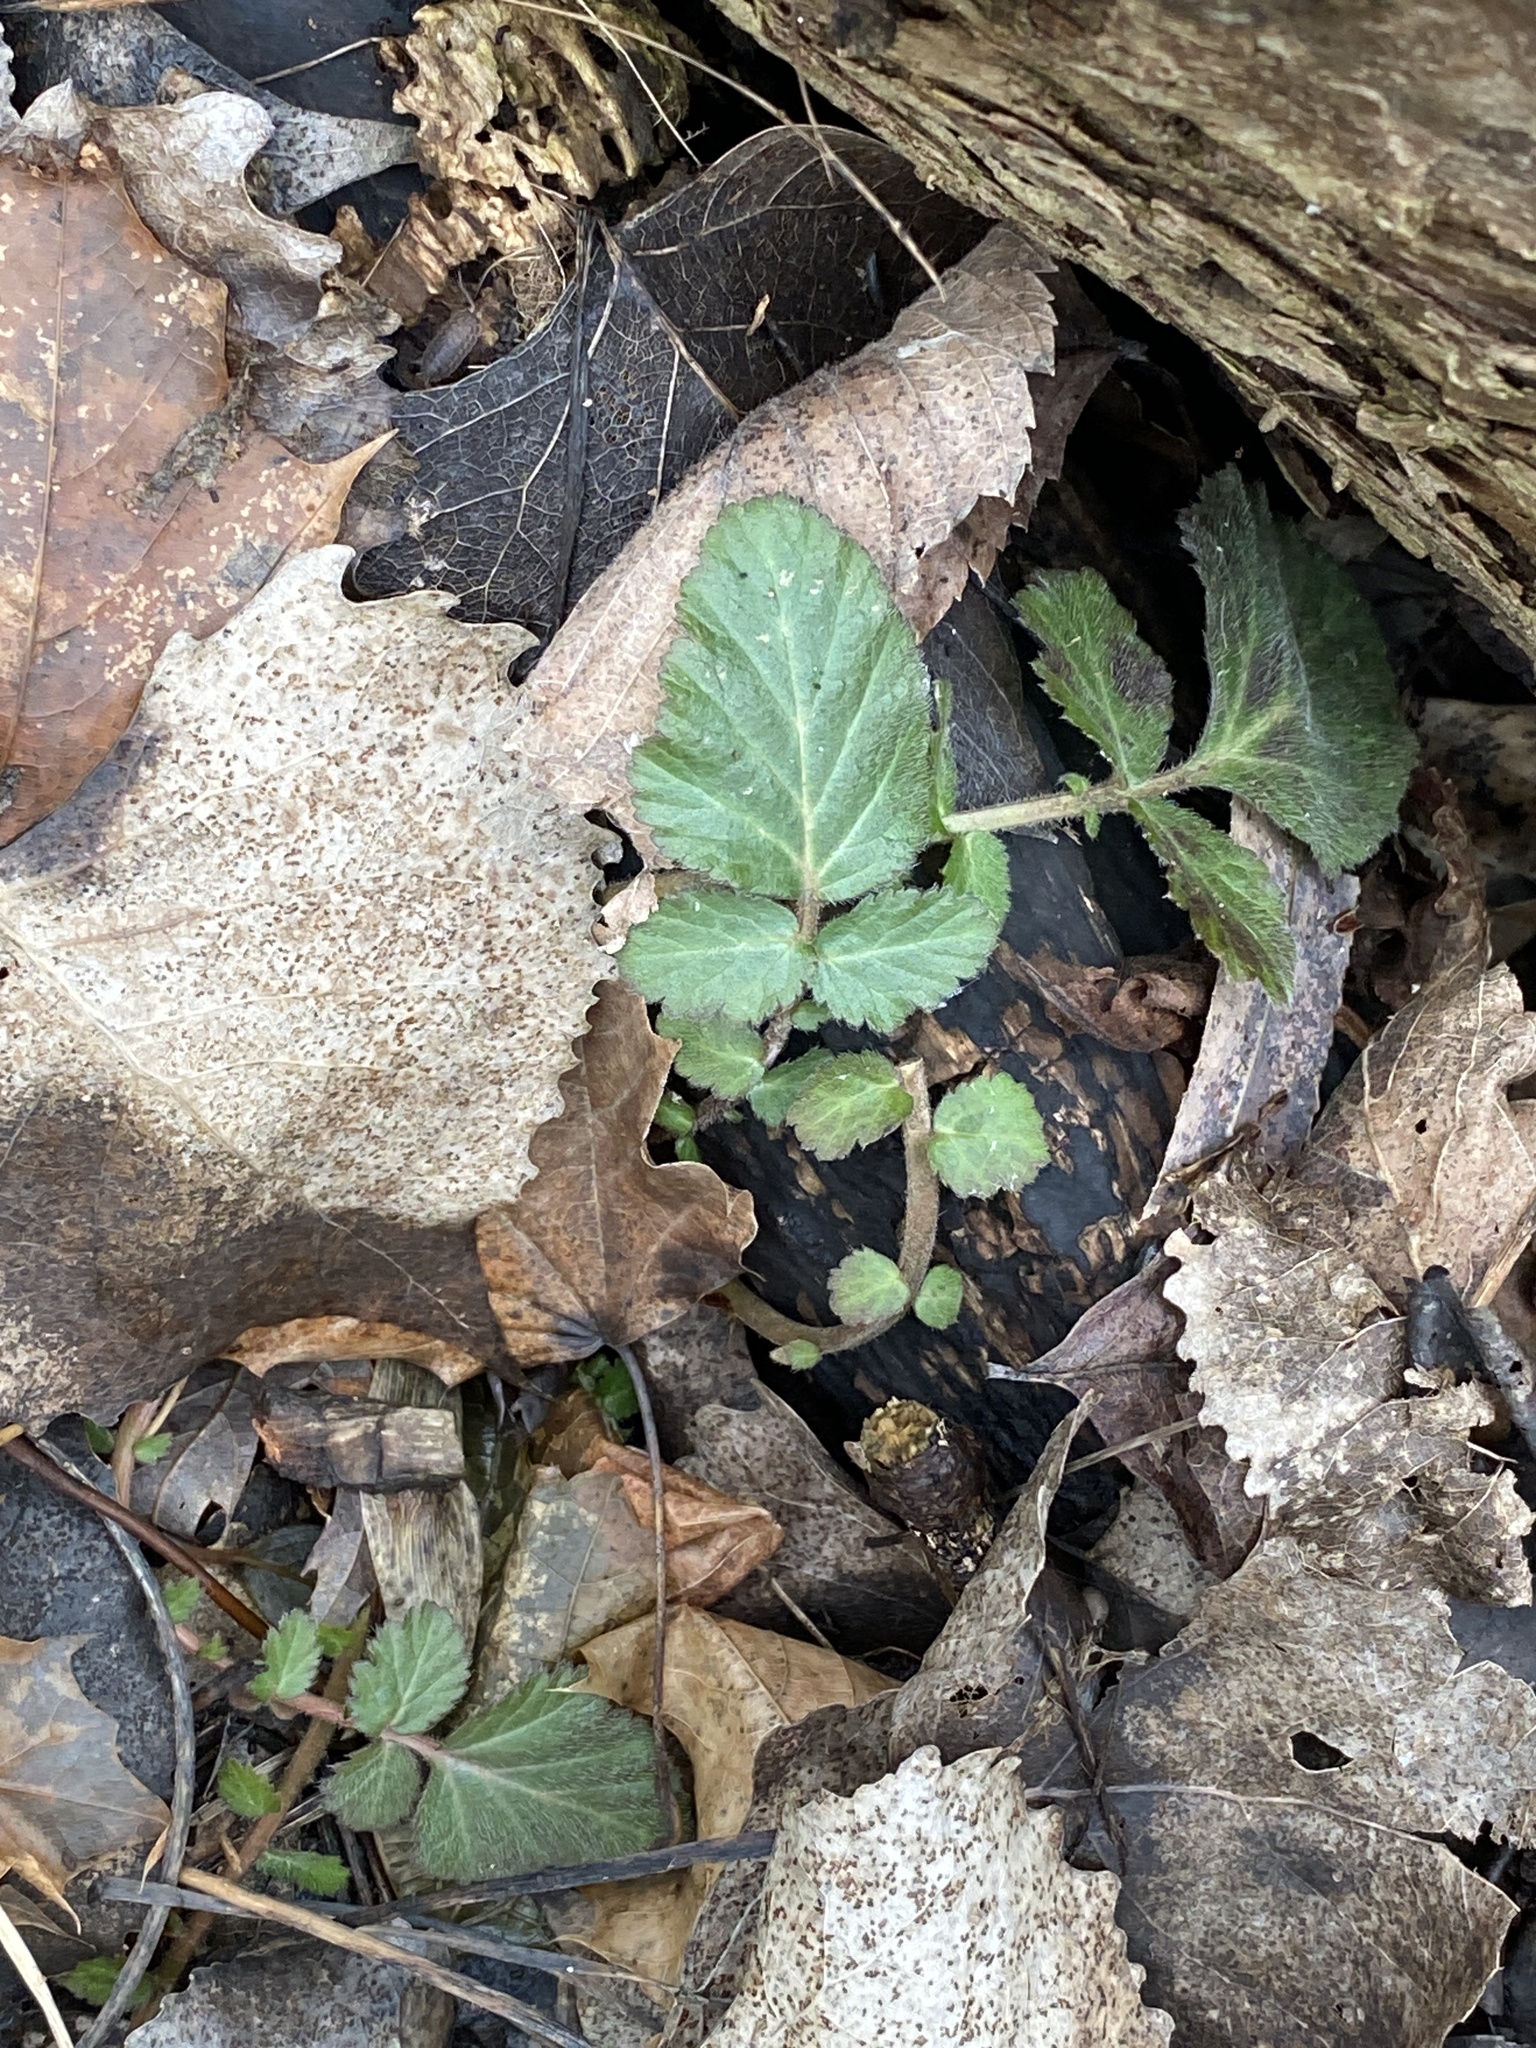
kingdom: Plantae
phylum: Tracheophyta
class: Magnoliopsida
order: Rosales
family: Rosaceae
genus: Geum
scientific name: Geum canadense
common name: White avens
